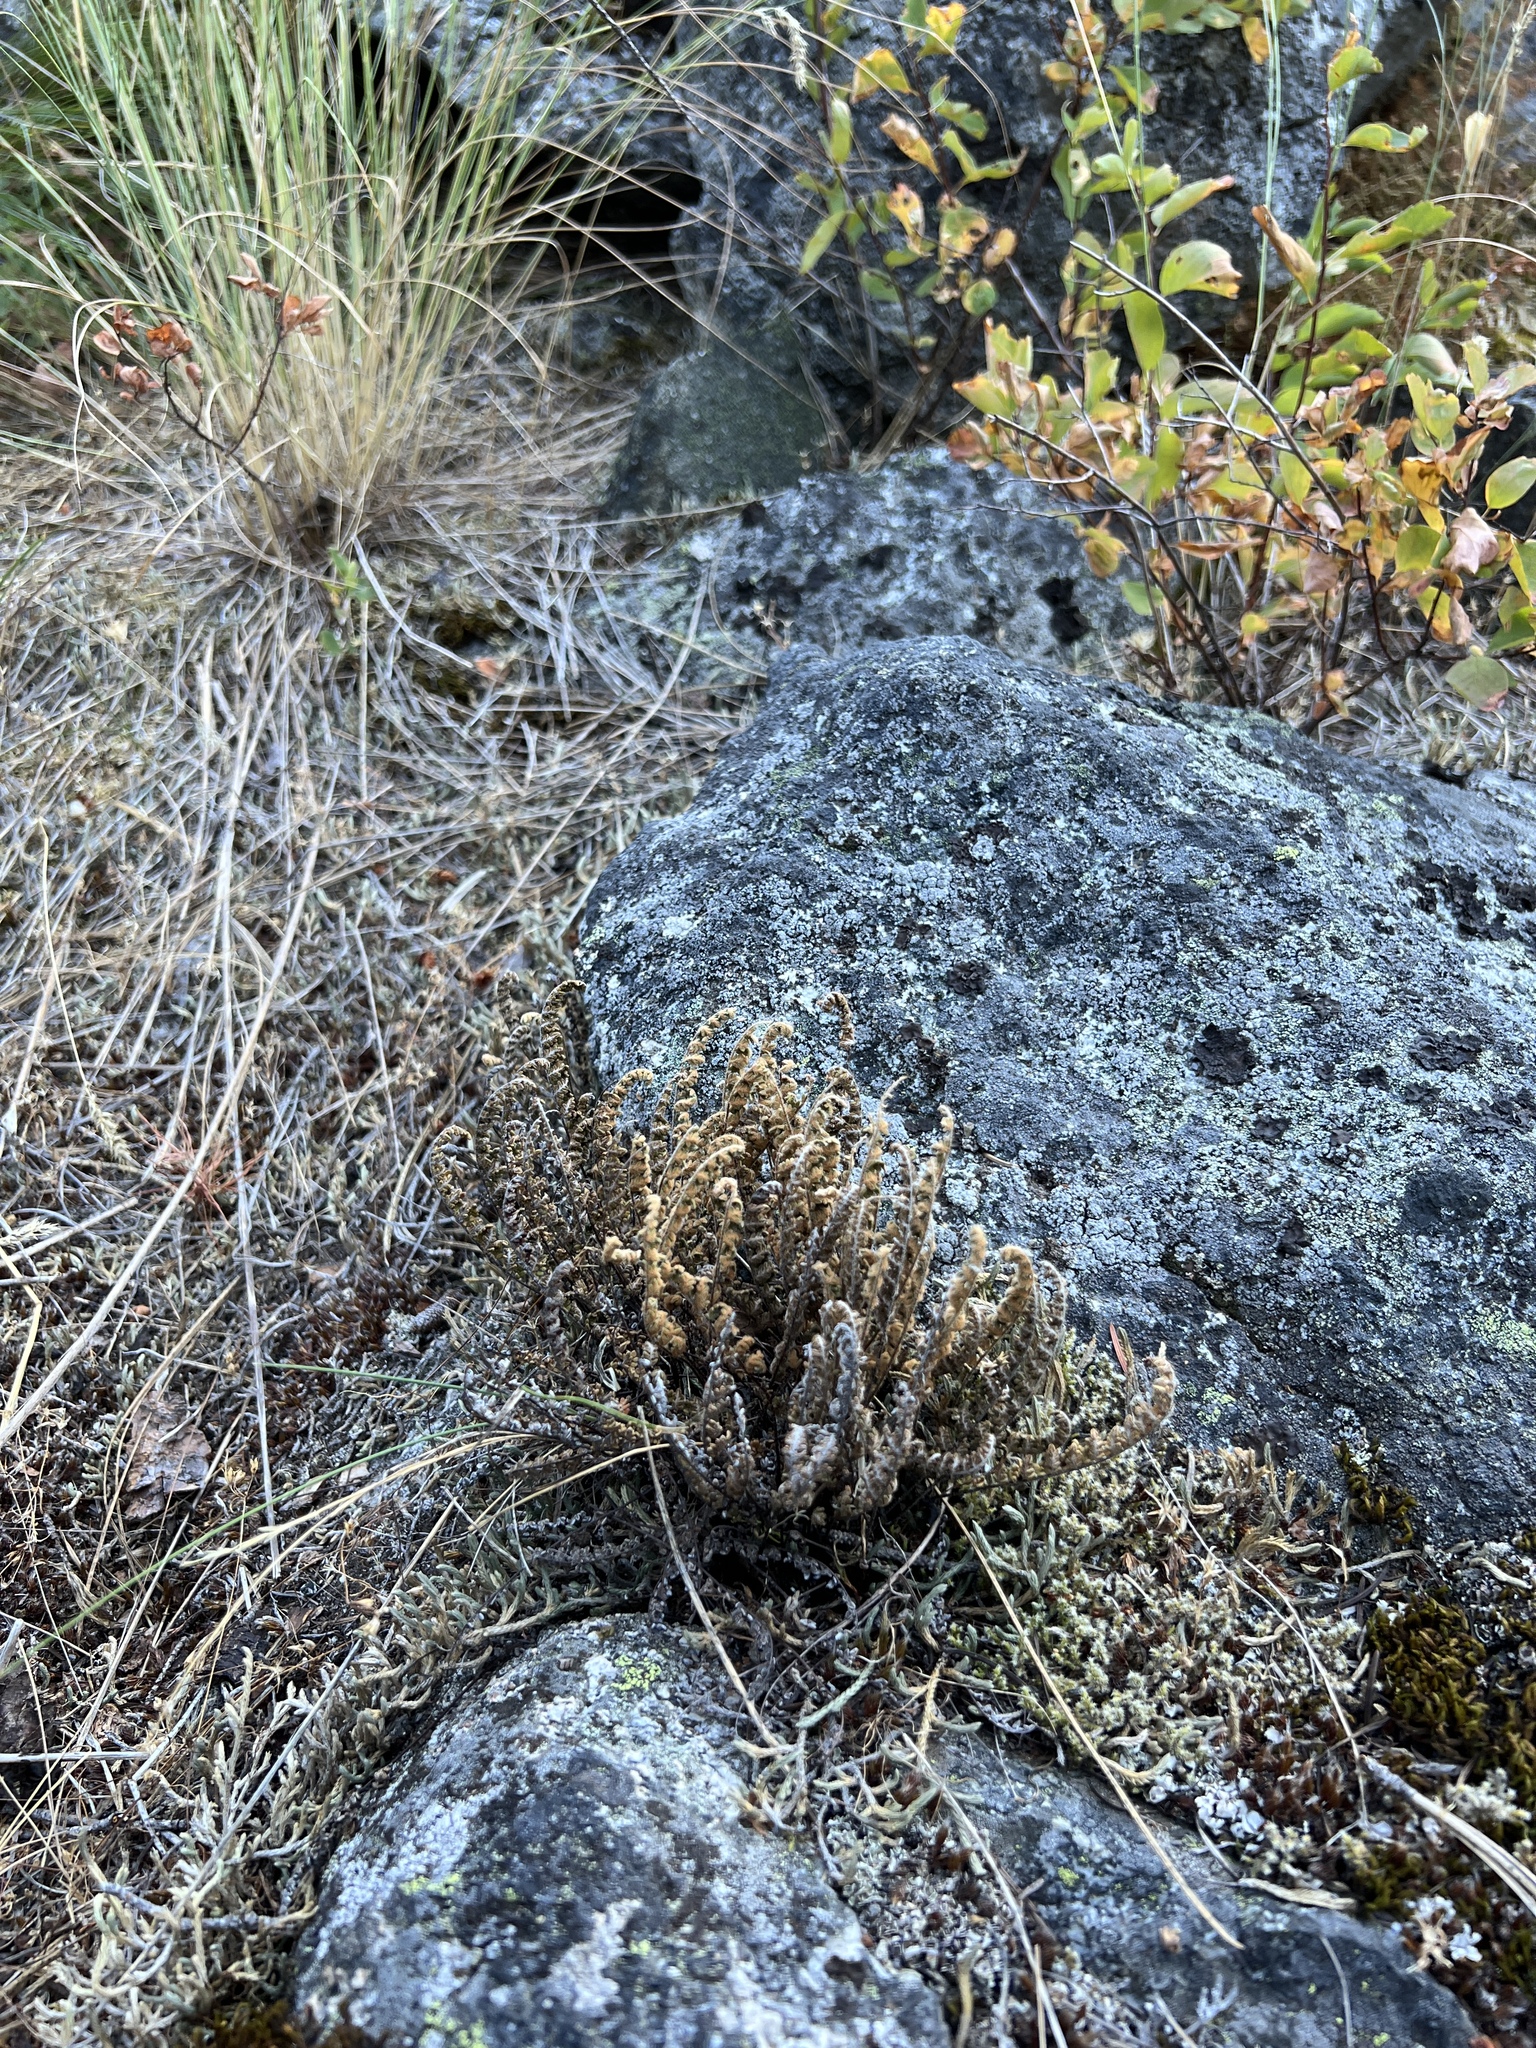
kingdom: Plantae
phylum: Tracheophyta
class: Polypodiopsida
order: Polypodiales
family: Pteridaceae
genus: Myriopteris
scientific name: Myriopteris gracillima
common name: Lace fern
